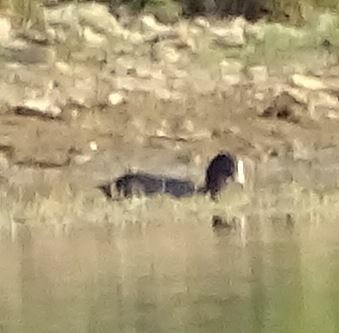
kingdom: Animalia
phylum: Chordata
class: Aves
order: Gruiformes
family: Rallidae
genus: Fulica
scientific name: Fulica atra
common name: Eurasian coot
